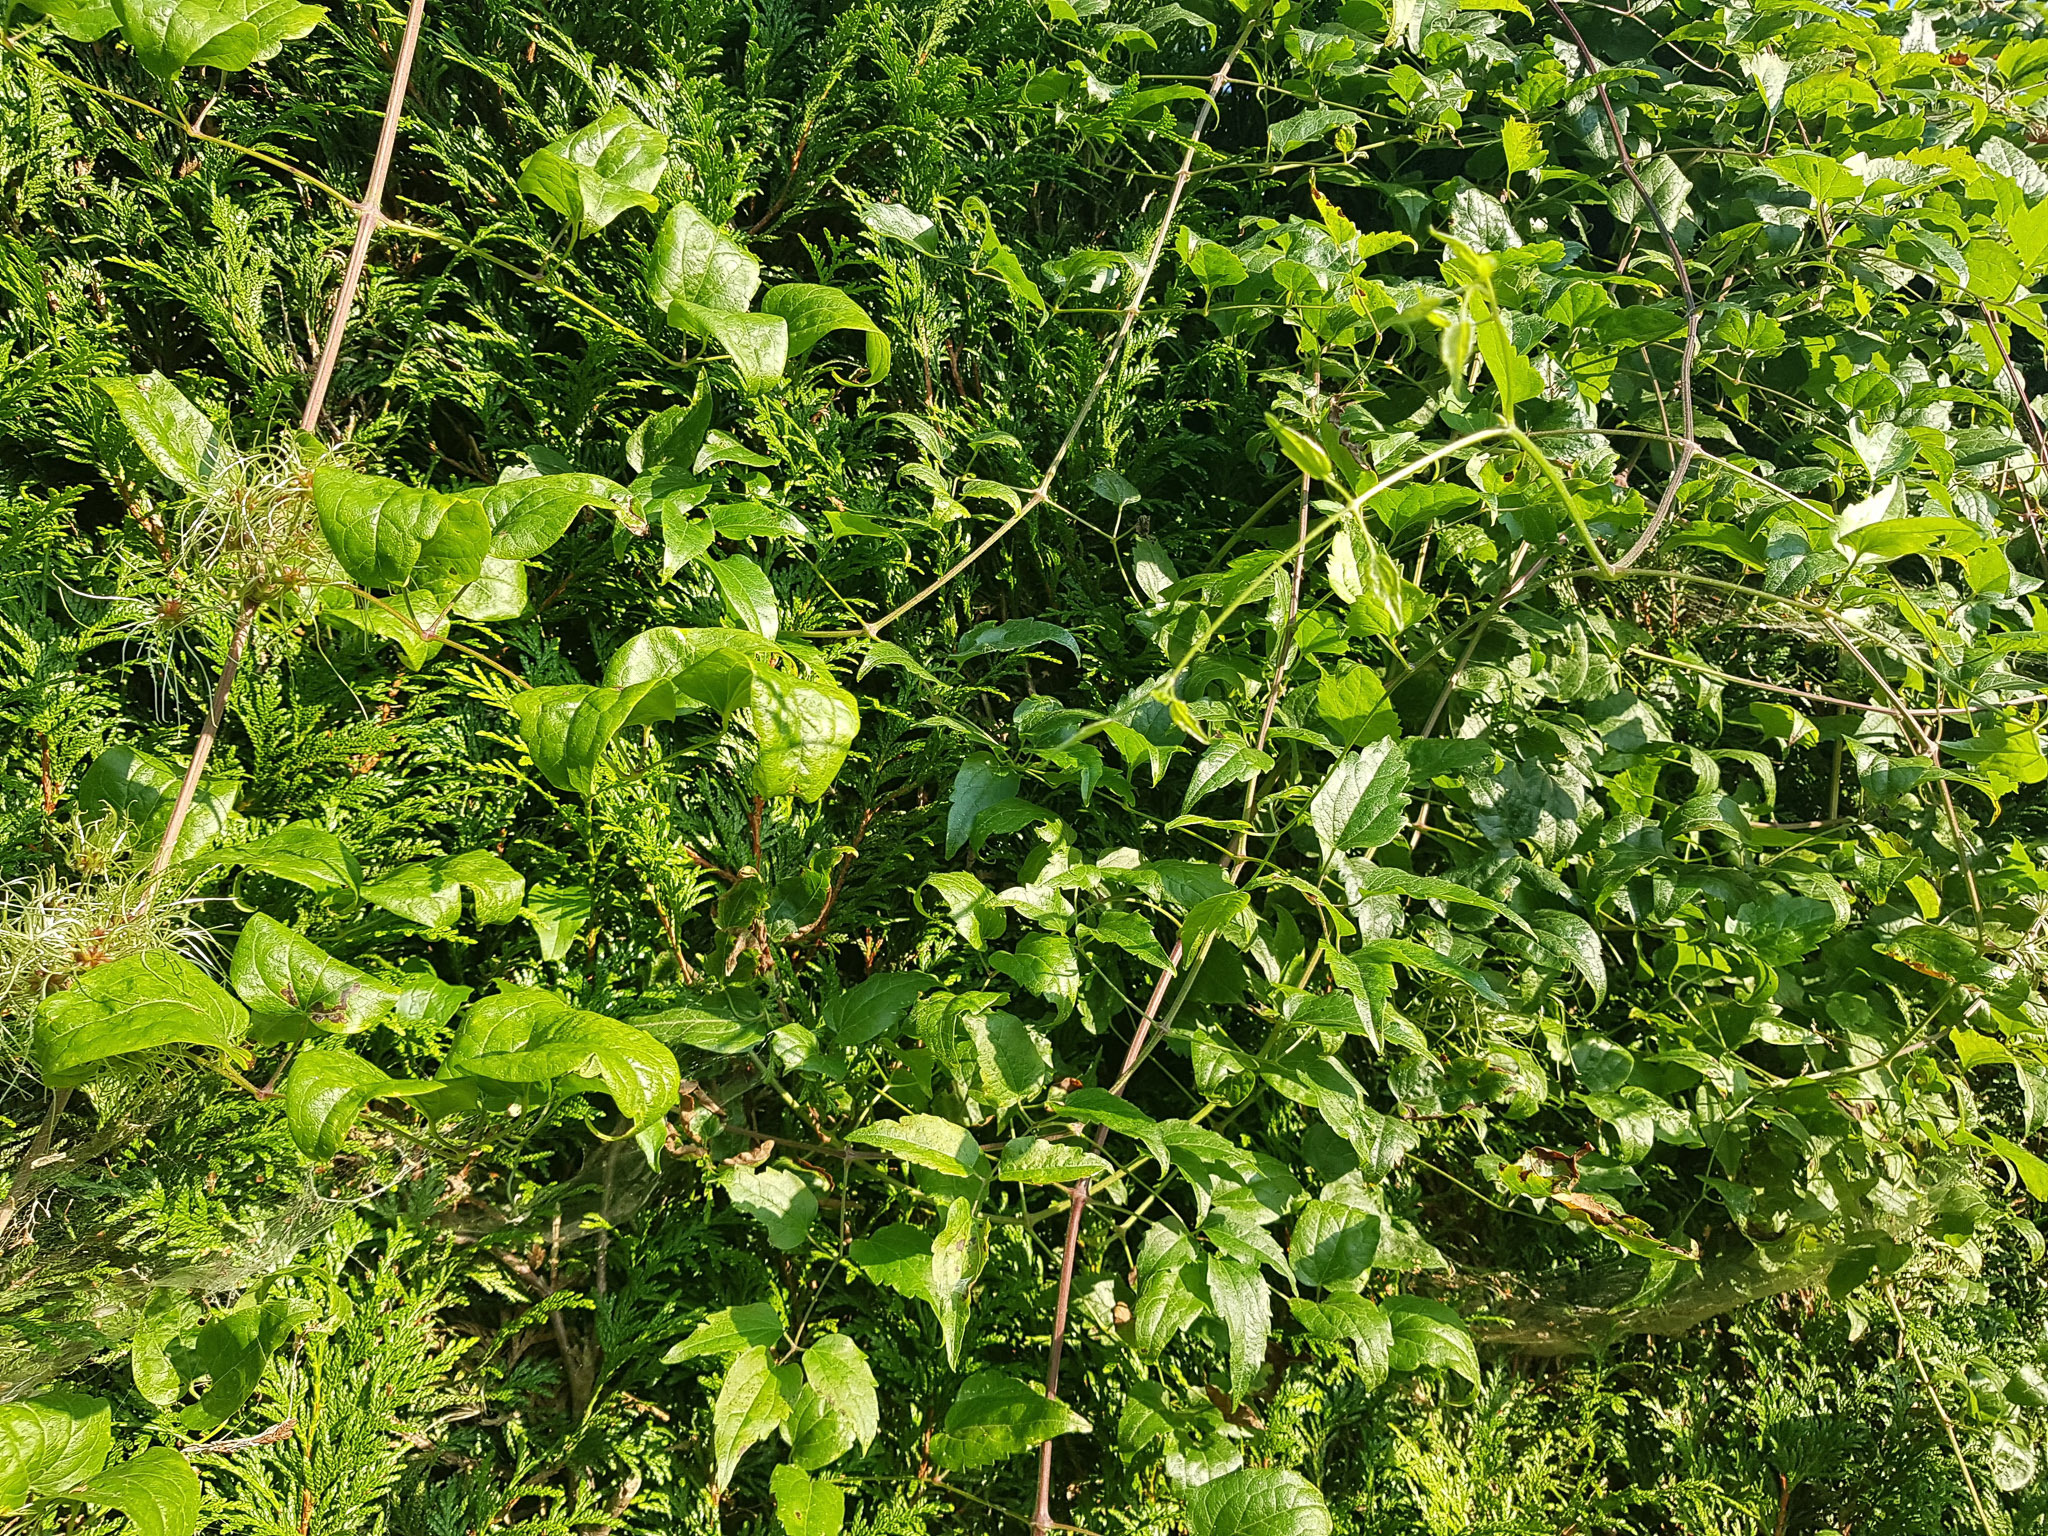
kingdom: Plantae
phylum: Tracheophyta
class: Magnoliopsida
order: Ranunculales
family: Ranunculaceae
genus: Clematis
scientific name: Clematis vitalba
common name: Evergreen clematis
